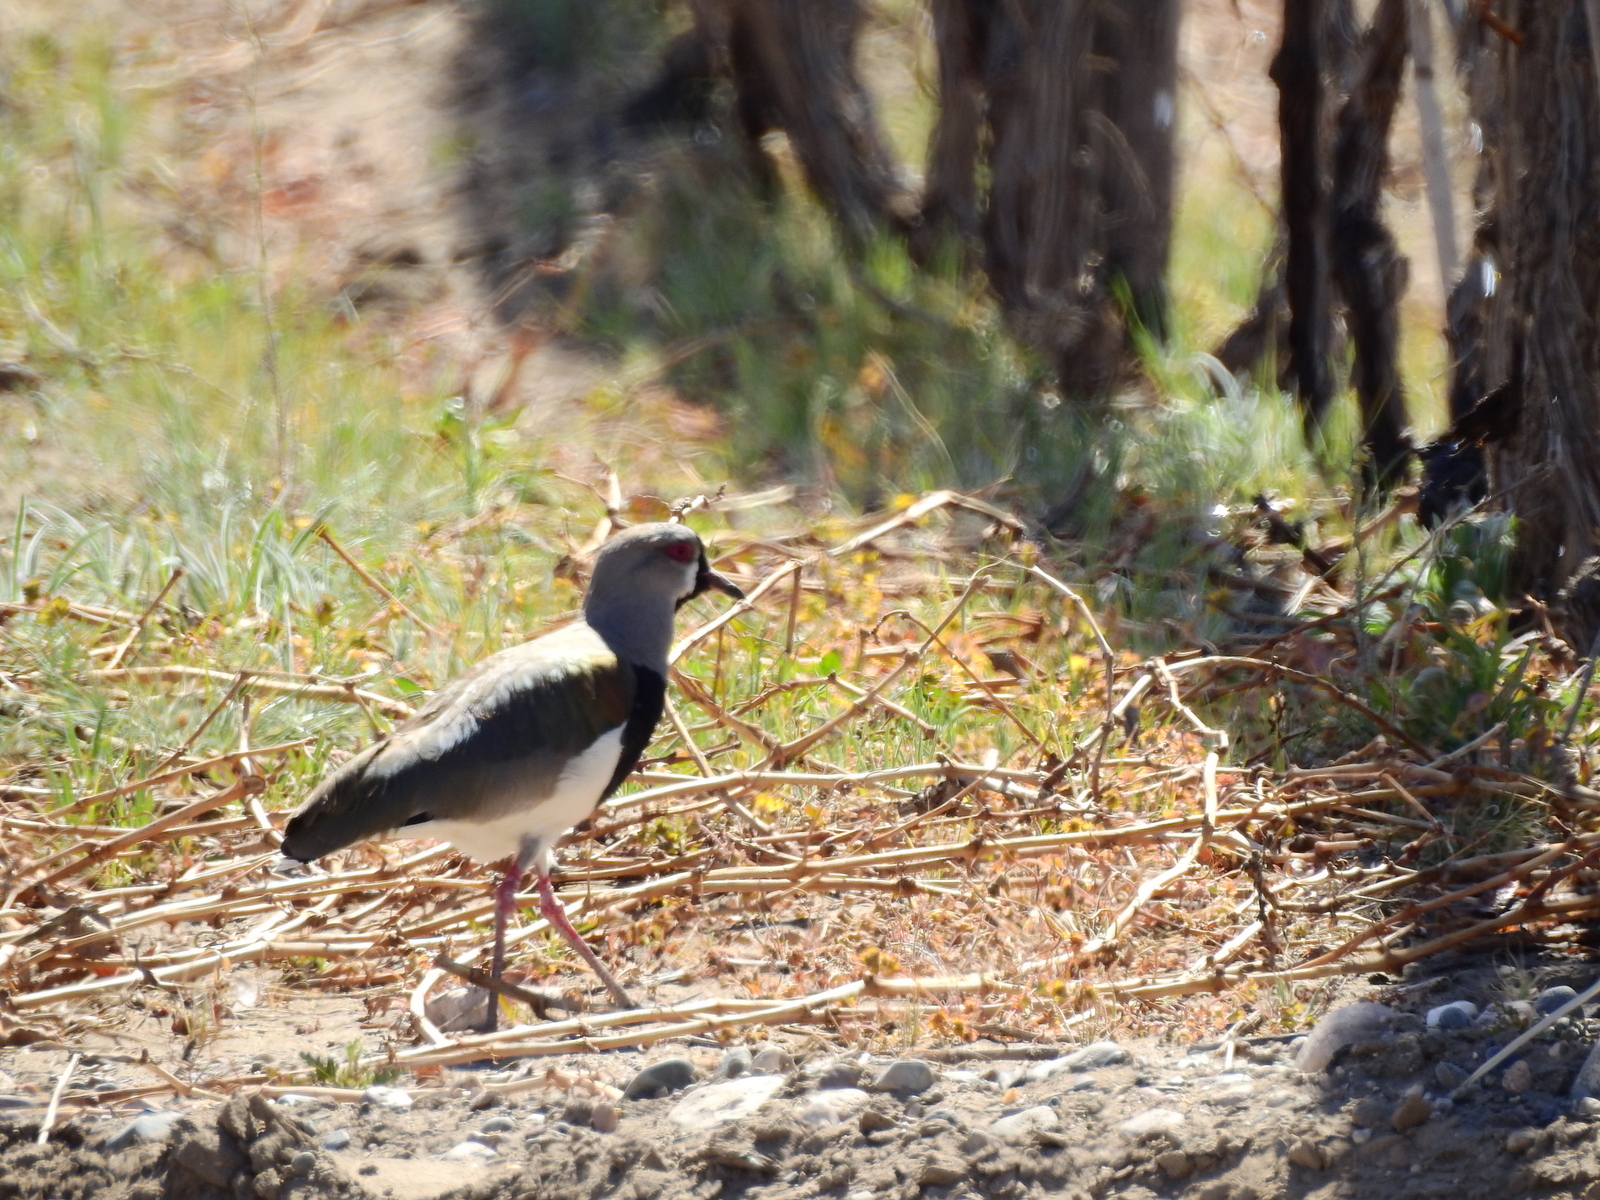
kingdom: Animalia
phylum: Chordata
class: Aves
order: Charadriiformes
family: Charadriidae
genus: Vanellus
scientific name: Vanellus chilensis
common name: Southern lapwing
